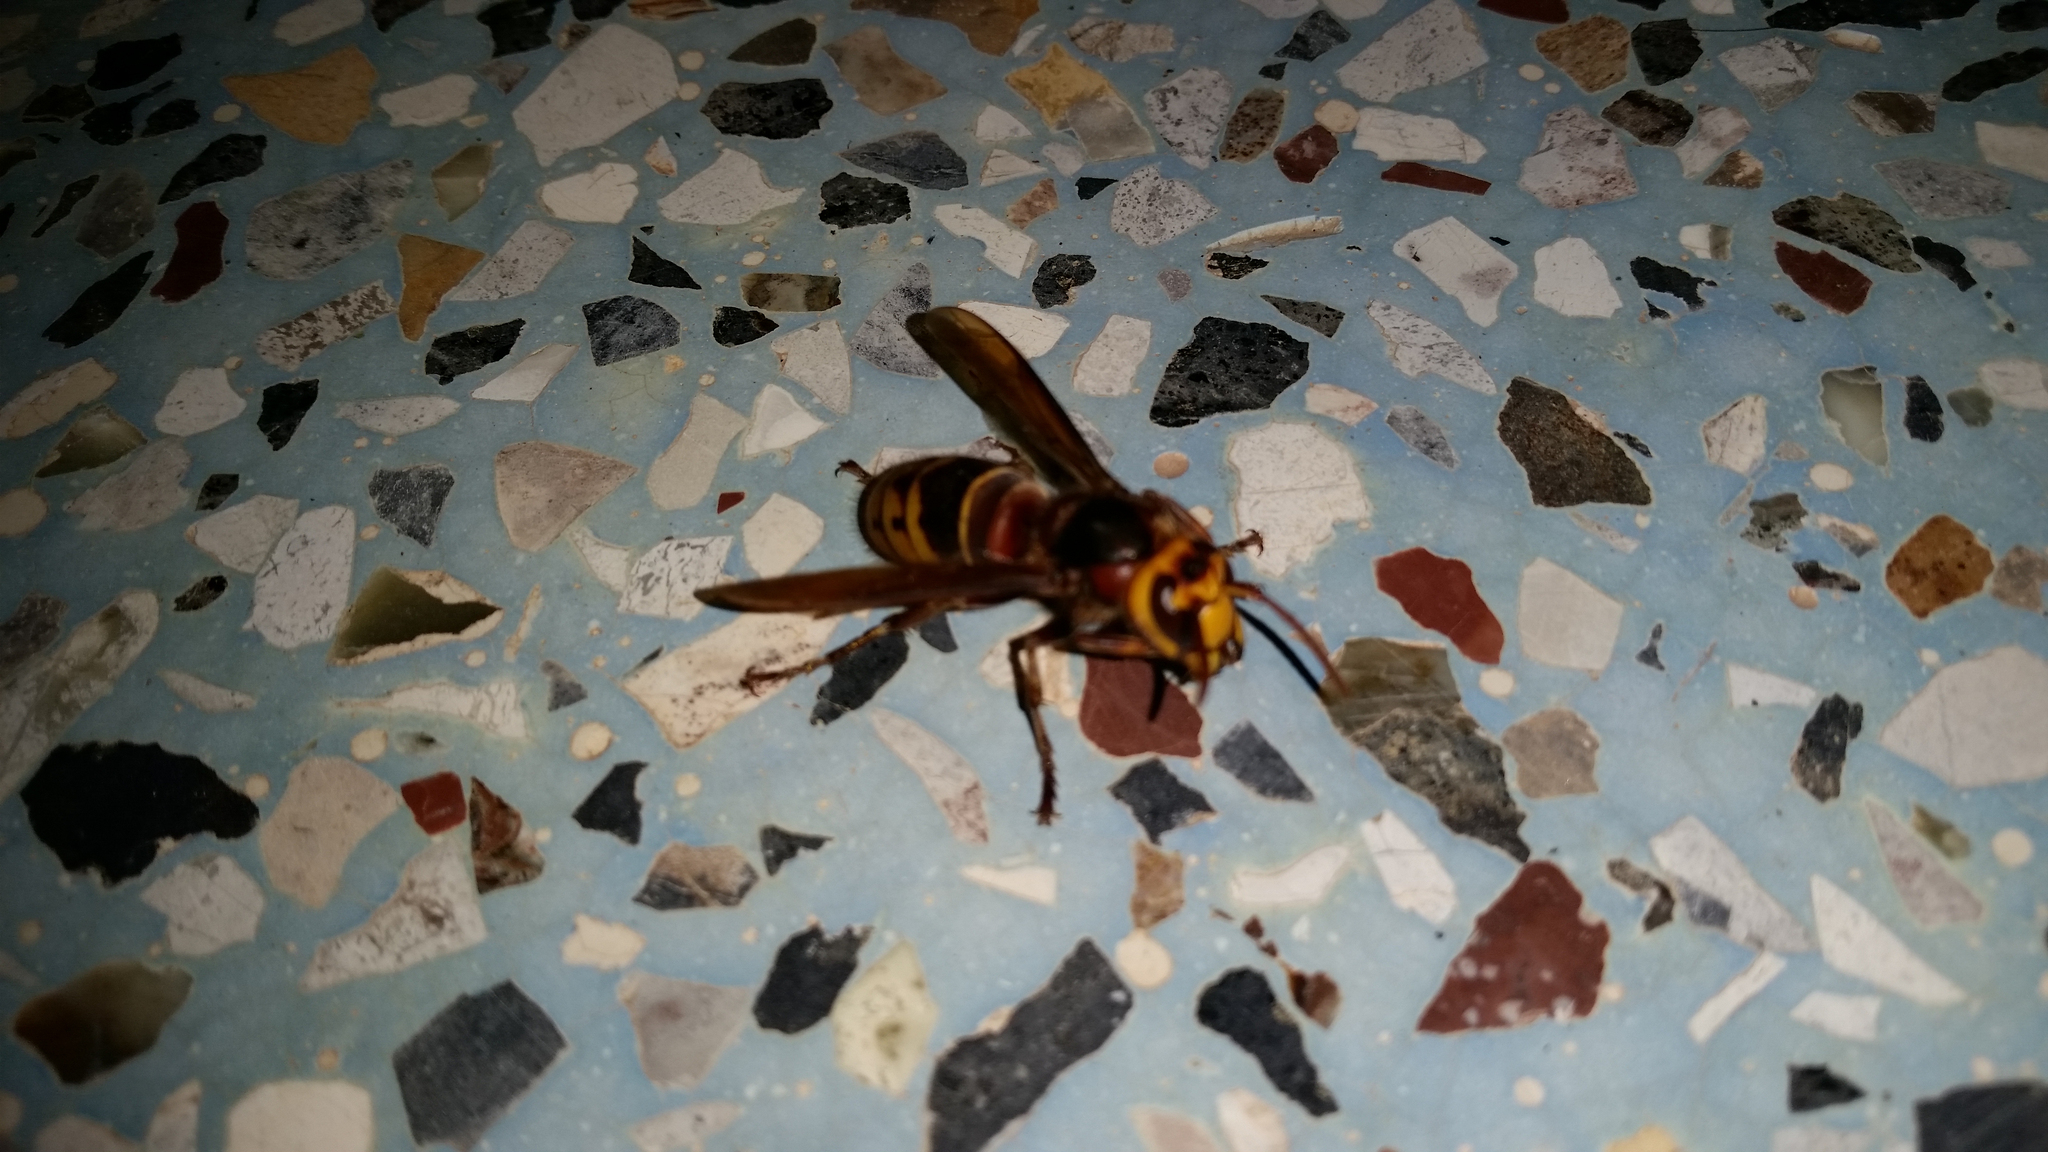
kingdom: Animalia
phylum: Arthropoda
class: Insecta
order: Hymenoptera
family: Vespidae
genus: Vespa
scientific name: Vespa crabro
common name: Hornet
